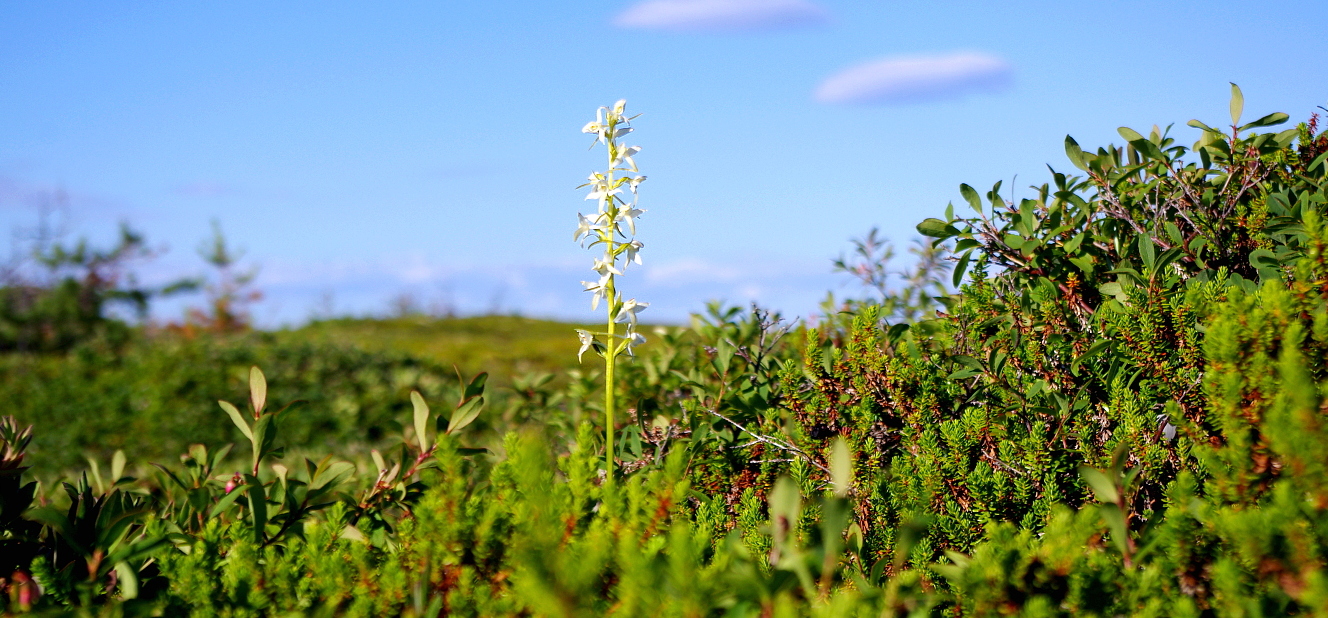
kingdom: Plantae
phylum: Tracheophyta
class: Liliopsida
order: Asparagales
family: Orchidaceae
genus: Platanthera
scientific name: Platanthera bifolia
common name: Lesser butterfly-orchid
